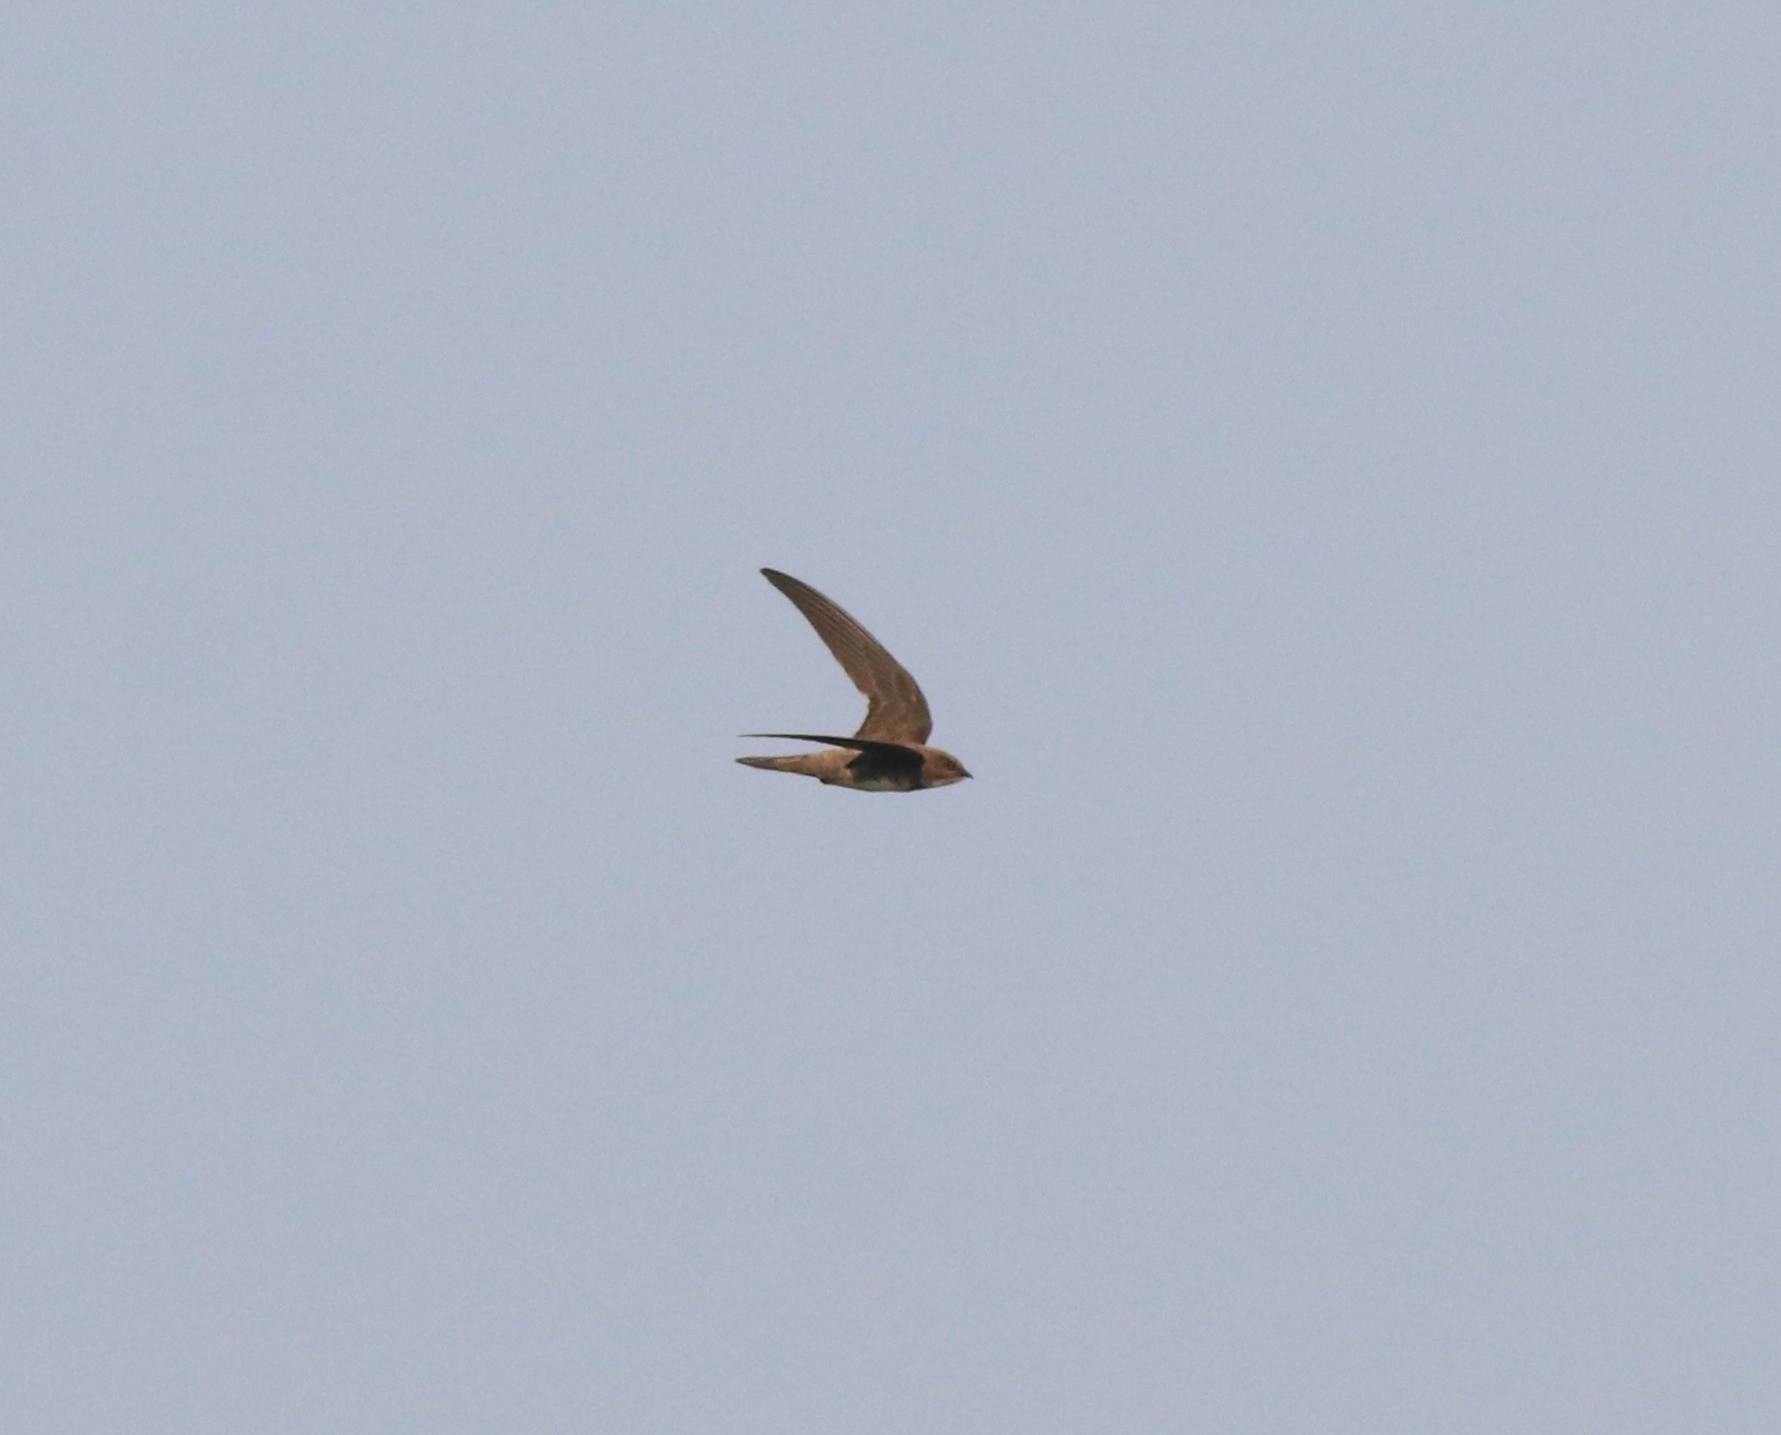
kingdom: Animalia
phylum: Chordata
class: Aves
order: Apodiformes
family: Apodidae
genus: Tachymarptis
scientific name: Tachymarptis melba
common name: Alpine swift
